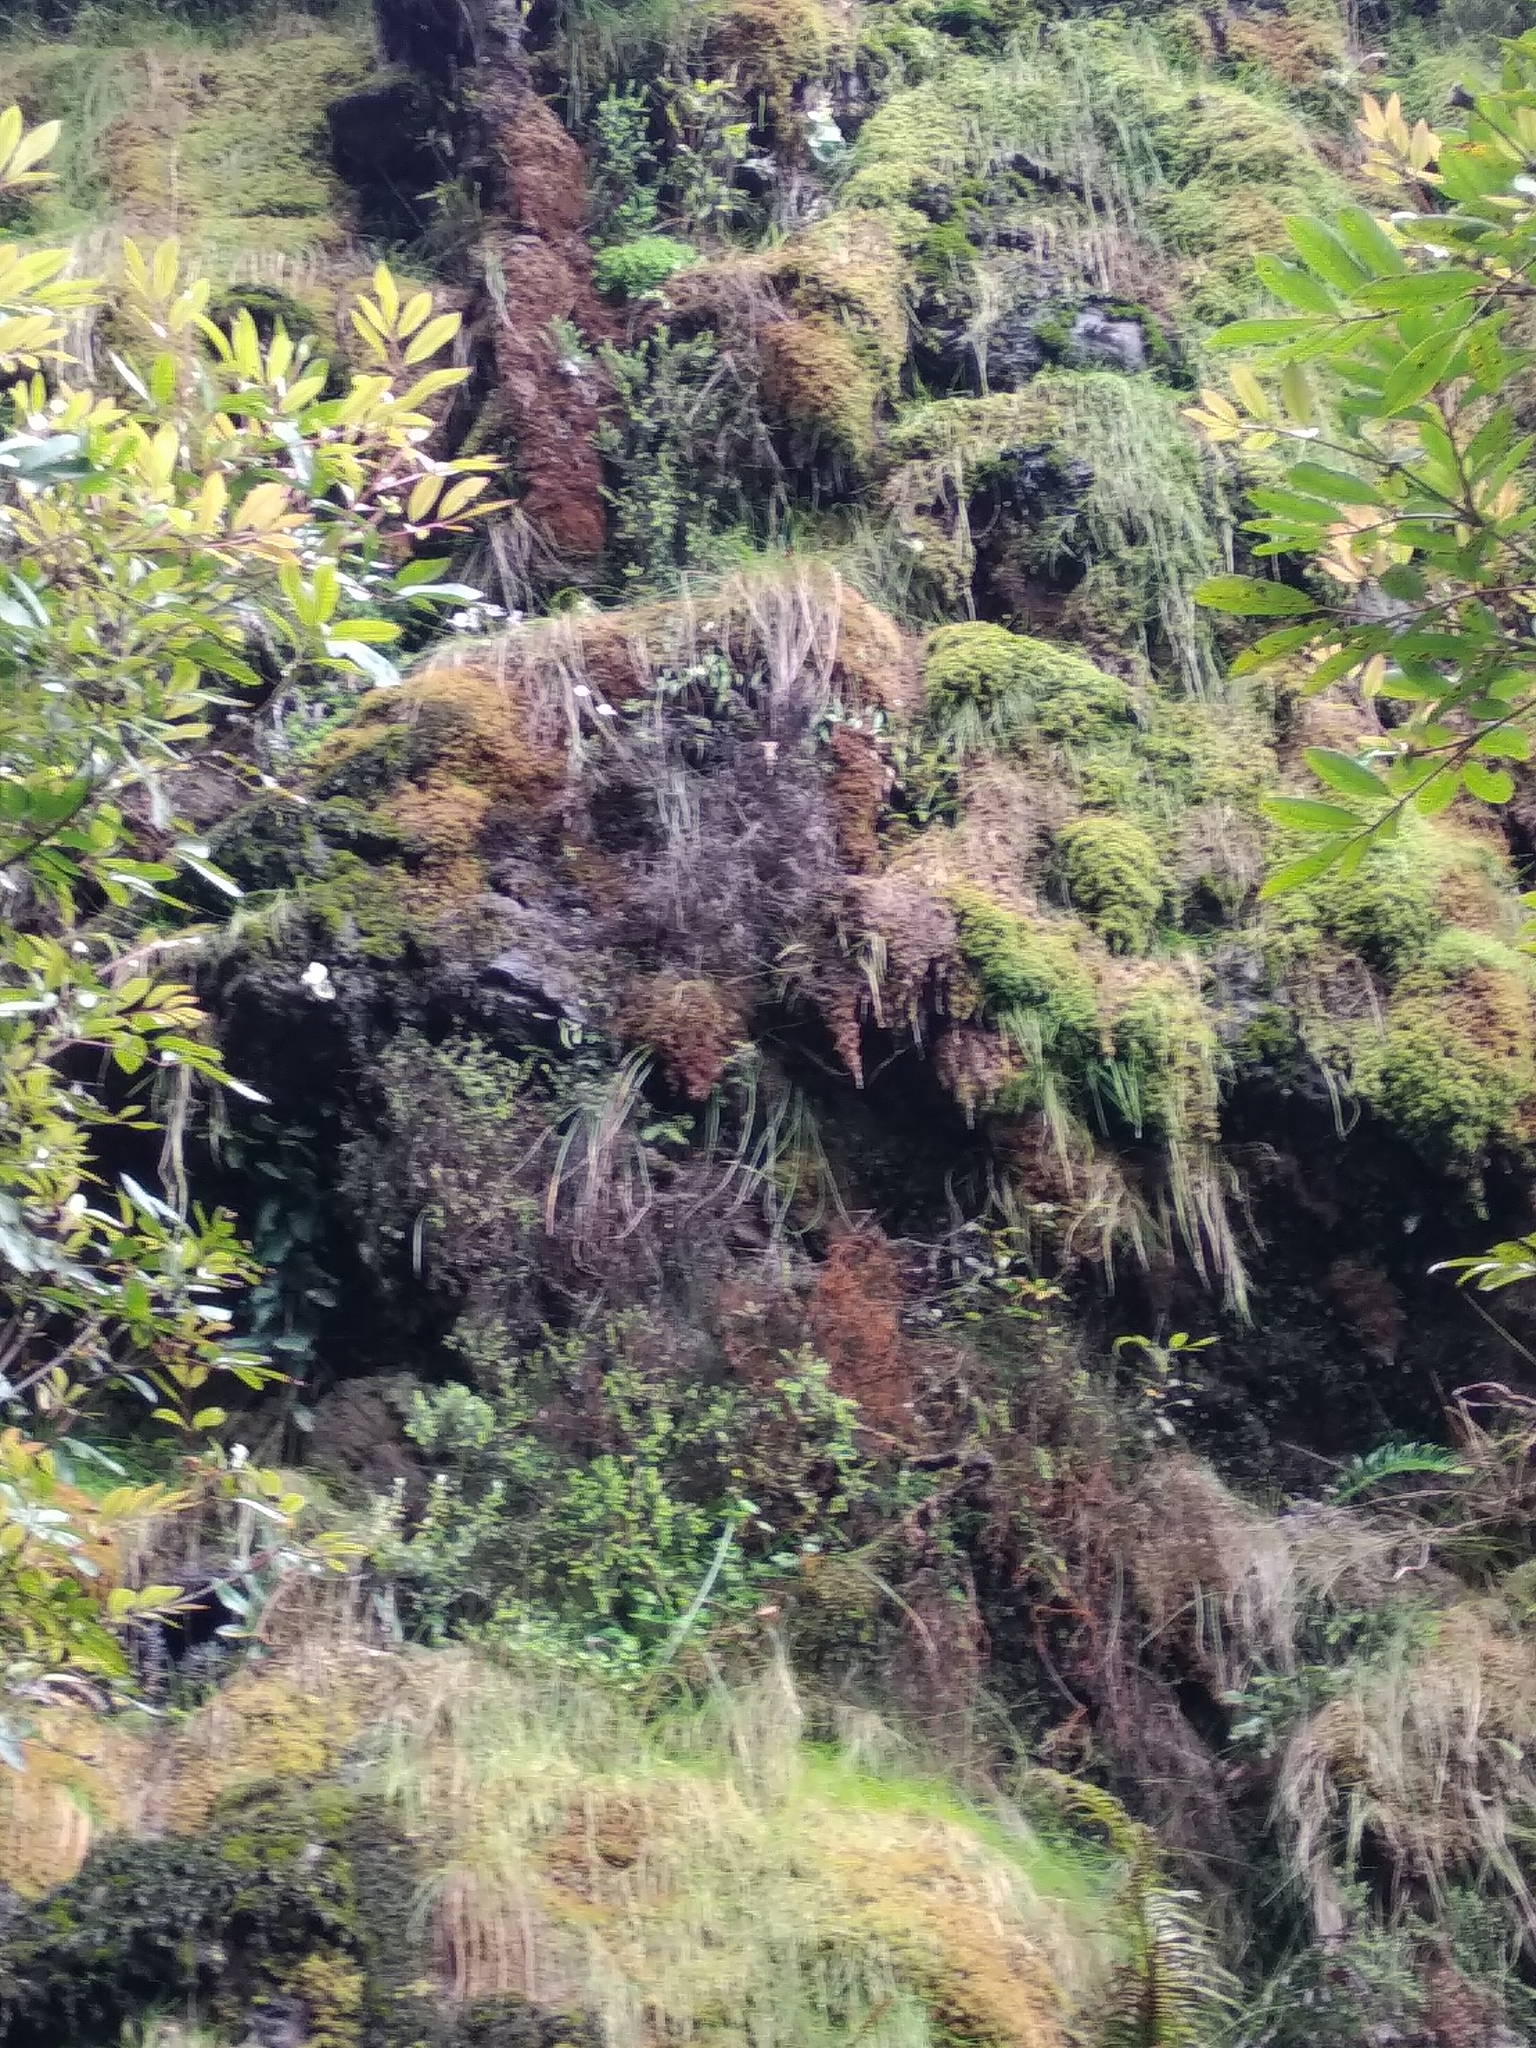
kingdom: Plantae
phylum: Tracheophyta
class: Liliopsida
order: Asparagales
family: Orchidaceae
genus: Disa
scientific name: Disa longicornu
